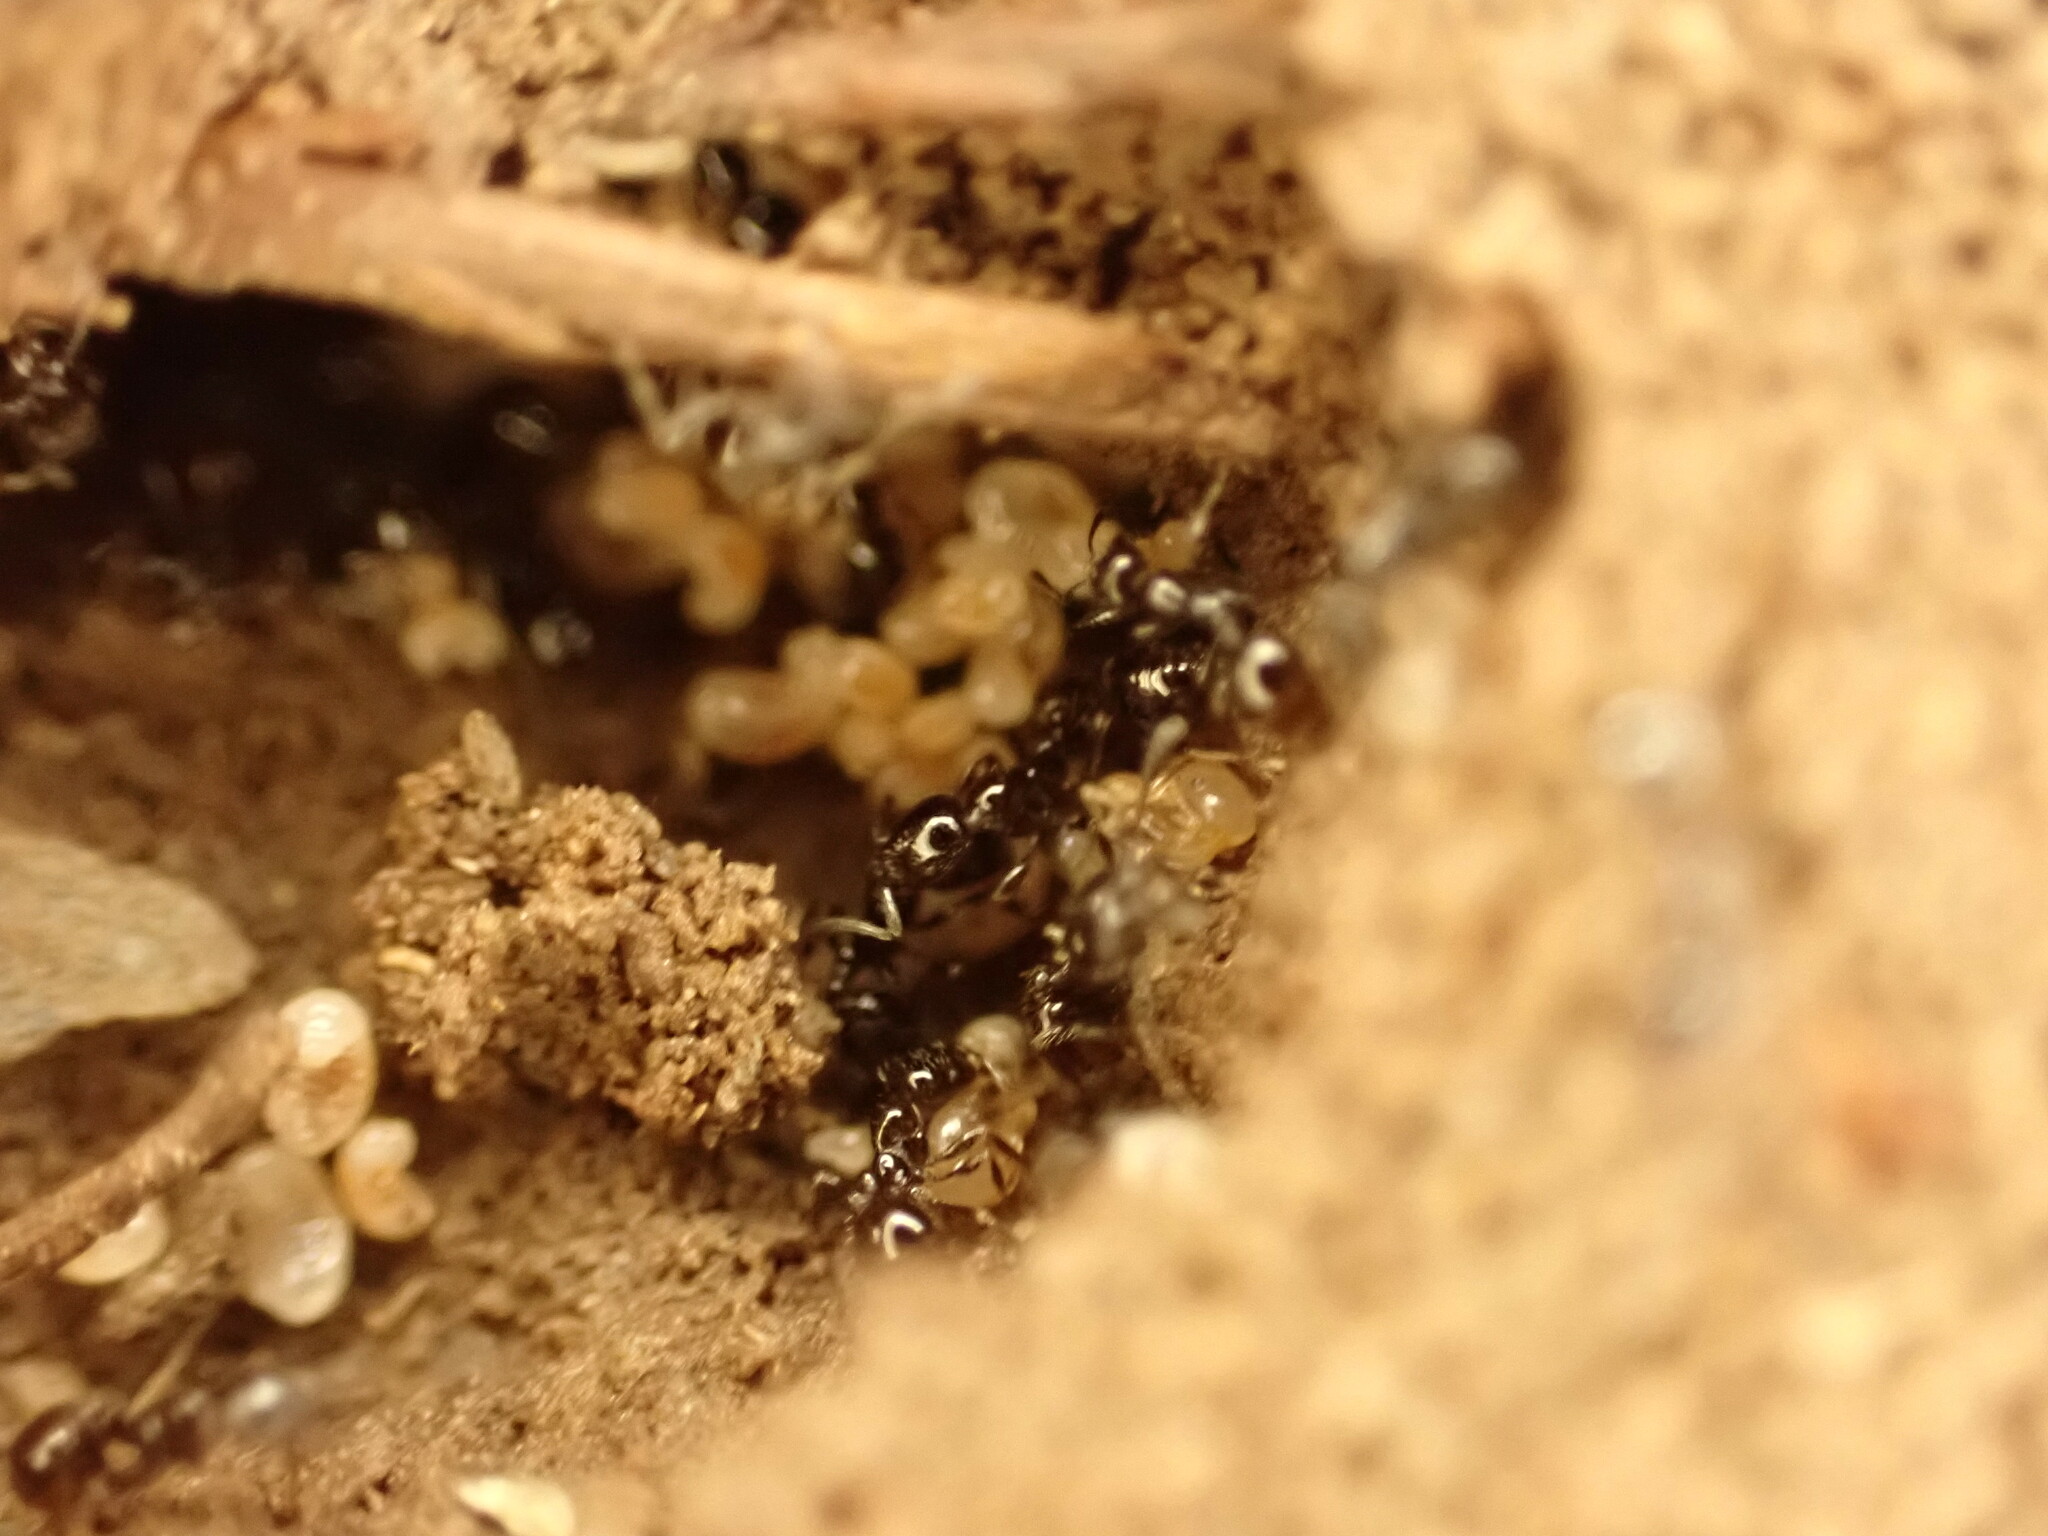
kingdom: Animalia
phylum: Arthropoda
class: Insecta
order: Hymenoptera
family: Formicidae
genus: Monomorium
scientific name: Monomorium antarcticum
